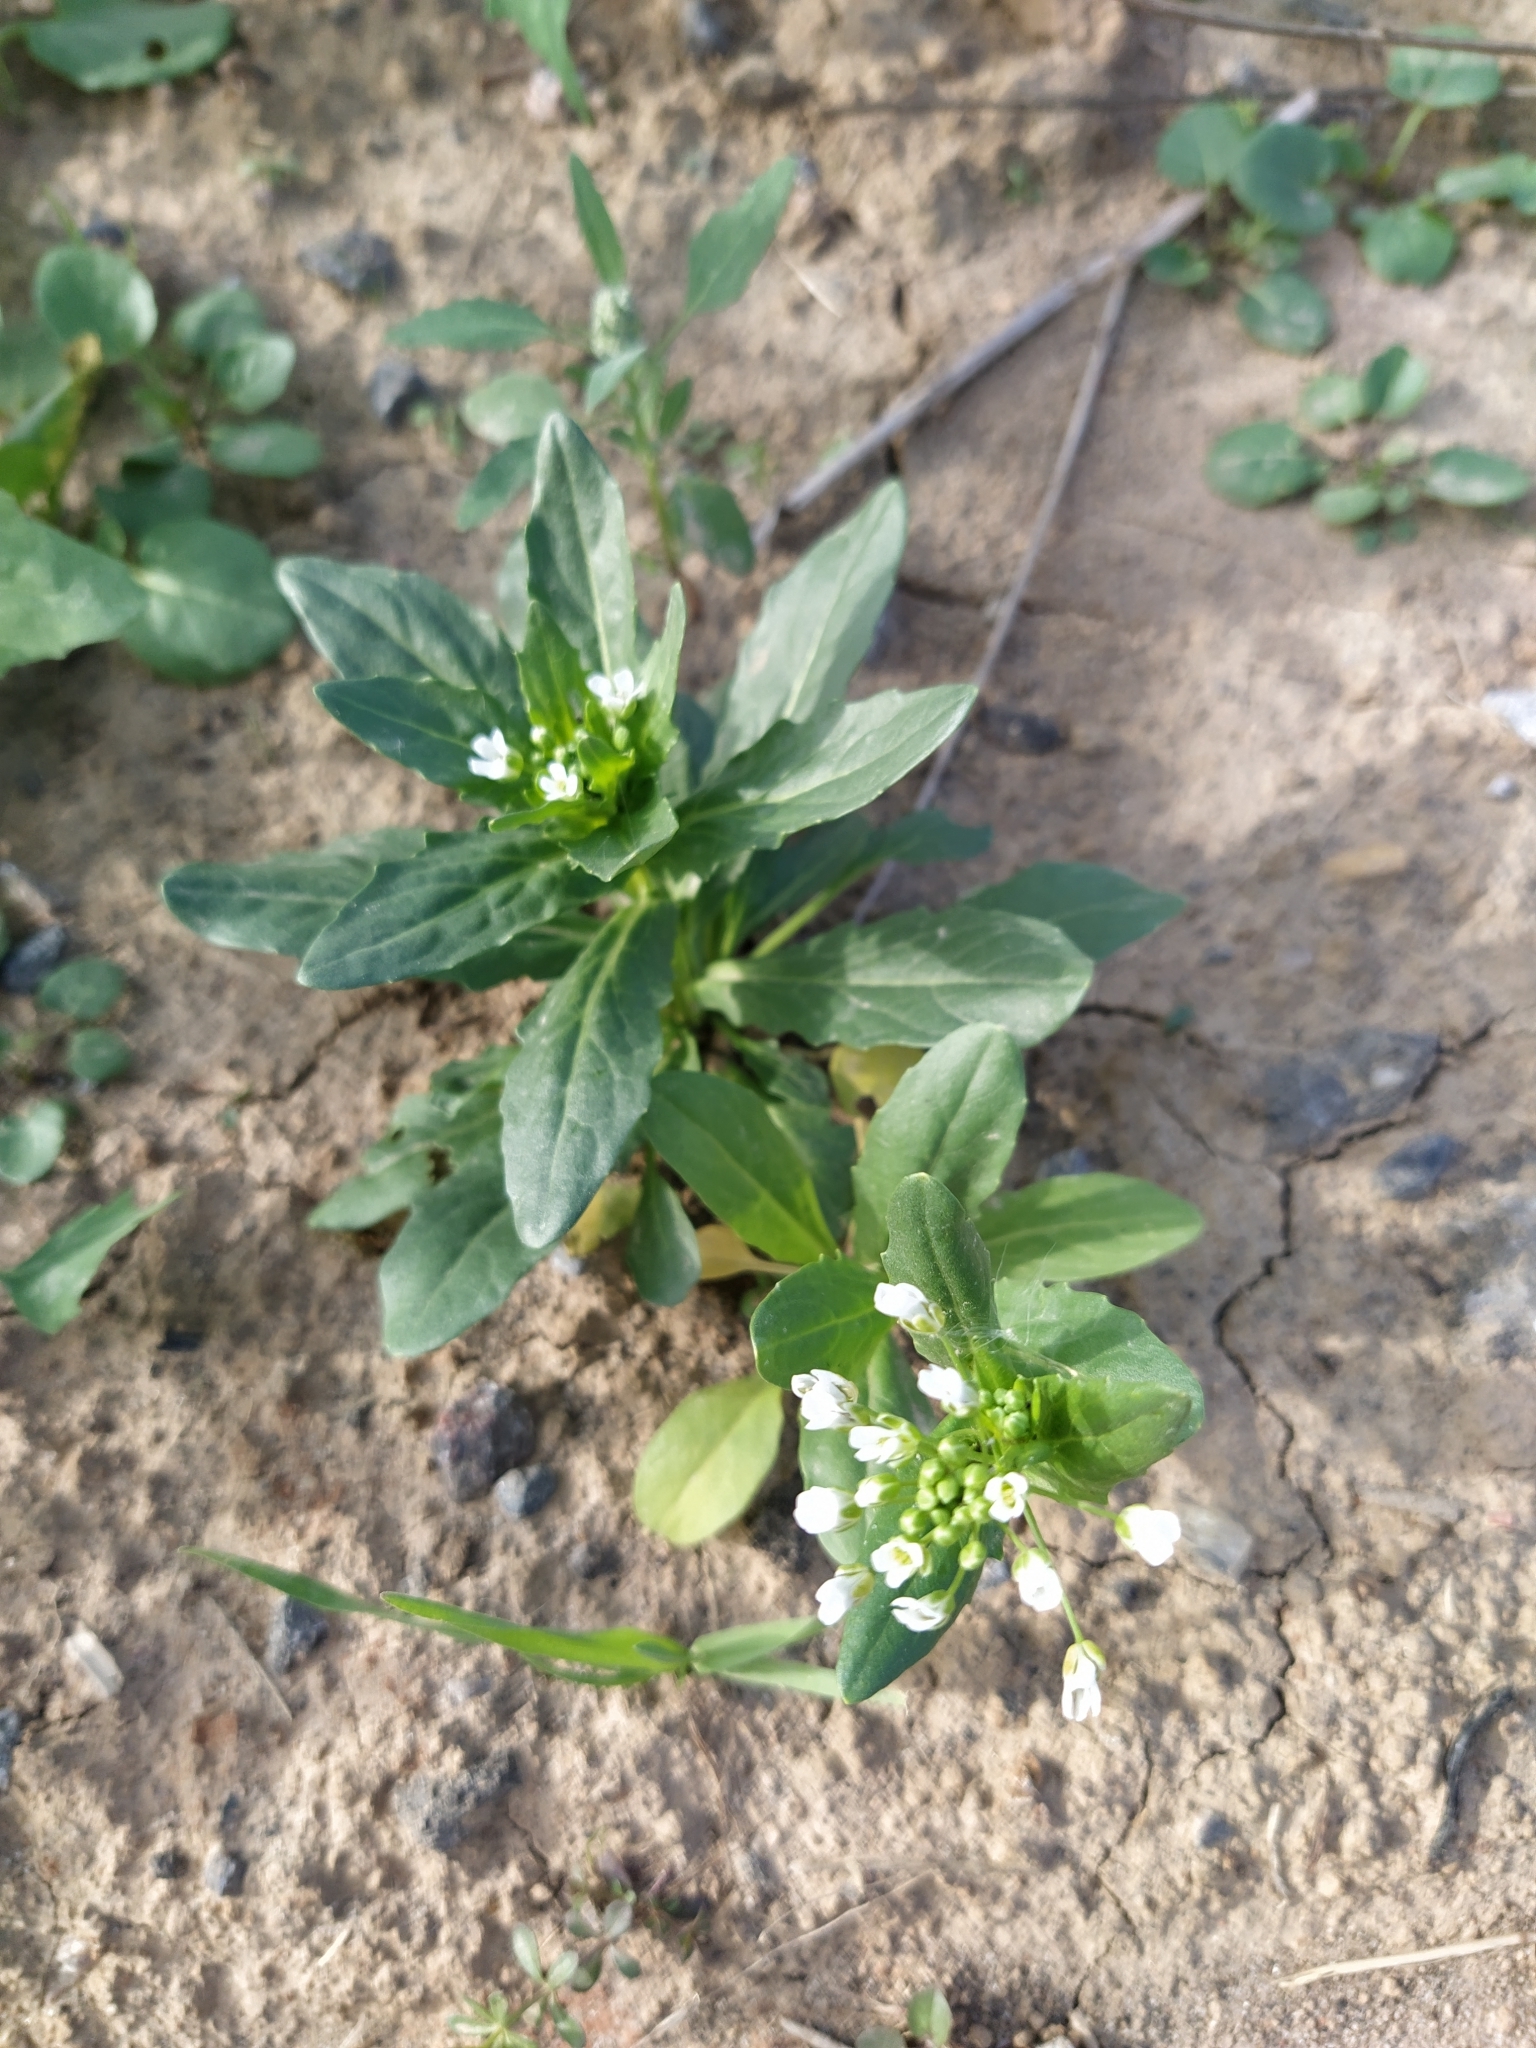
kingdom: Plantae
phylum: Tracheophyta
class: Magnoliopsida
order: Brassicales
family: Brassicaceae
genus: Thlaspi
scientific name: Thlaspi arvense
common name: Field pennycress
